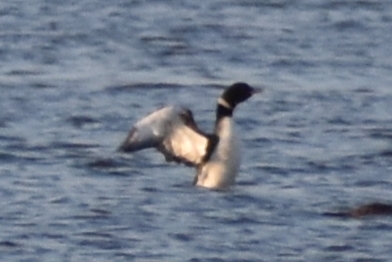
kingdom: Animalia
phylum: Chordata
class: Aves
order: Gaviiformes
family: Gaviidae
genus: Gavia
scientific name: Gavia immer
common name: Common loon
